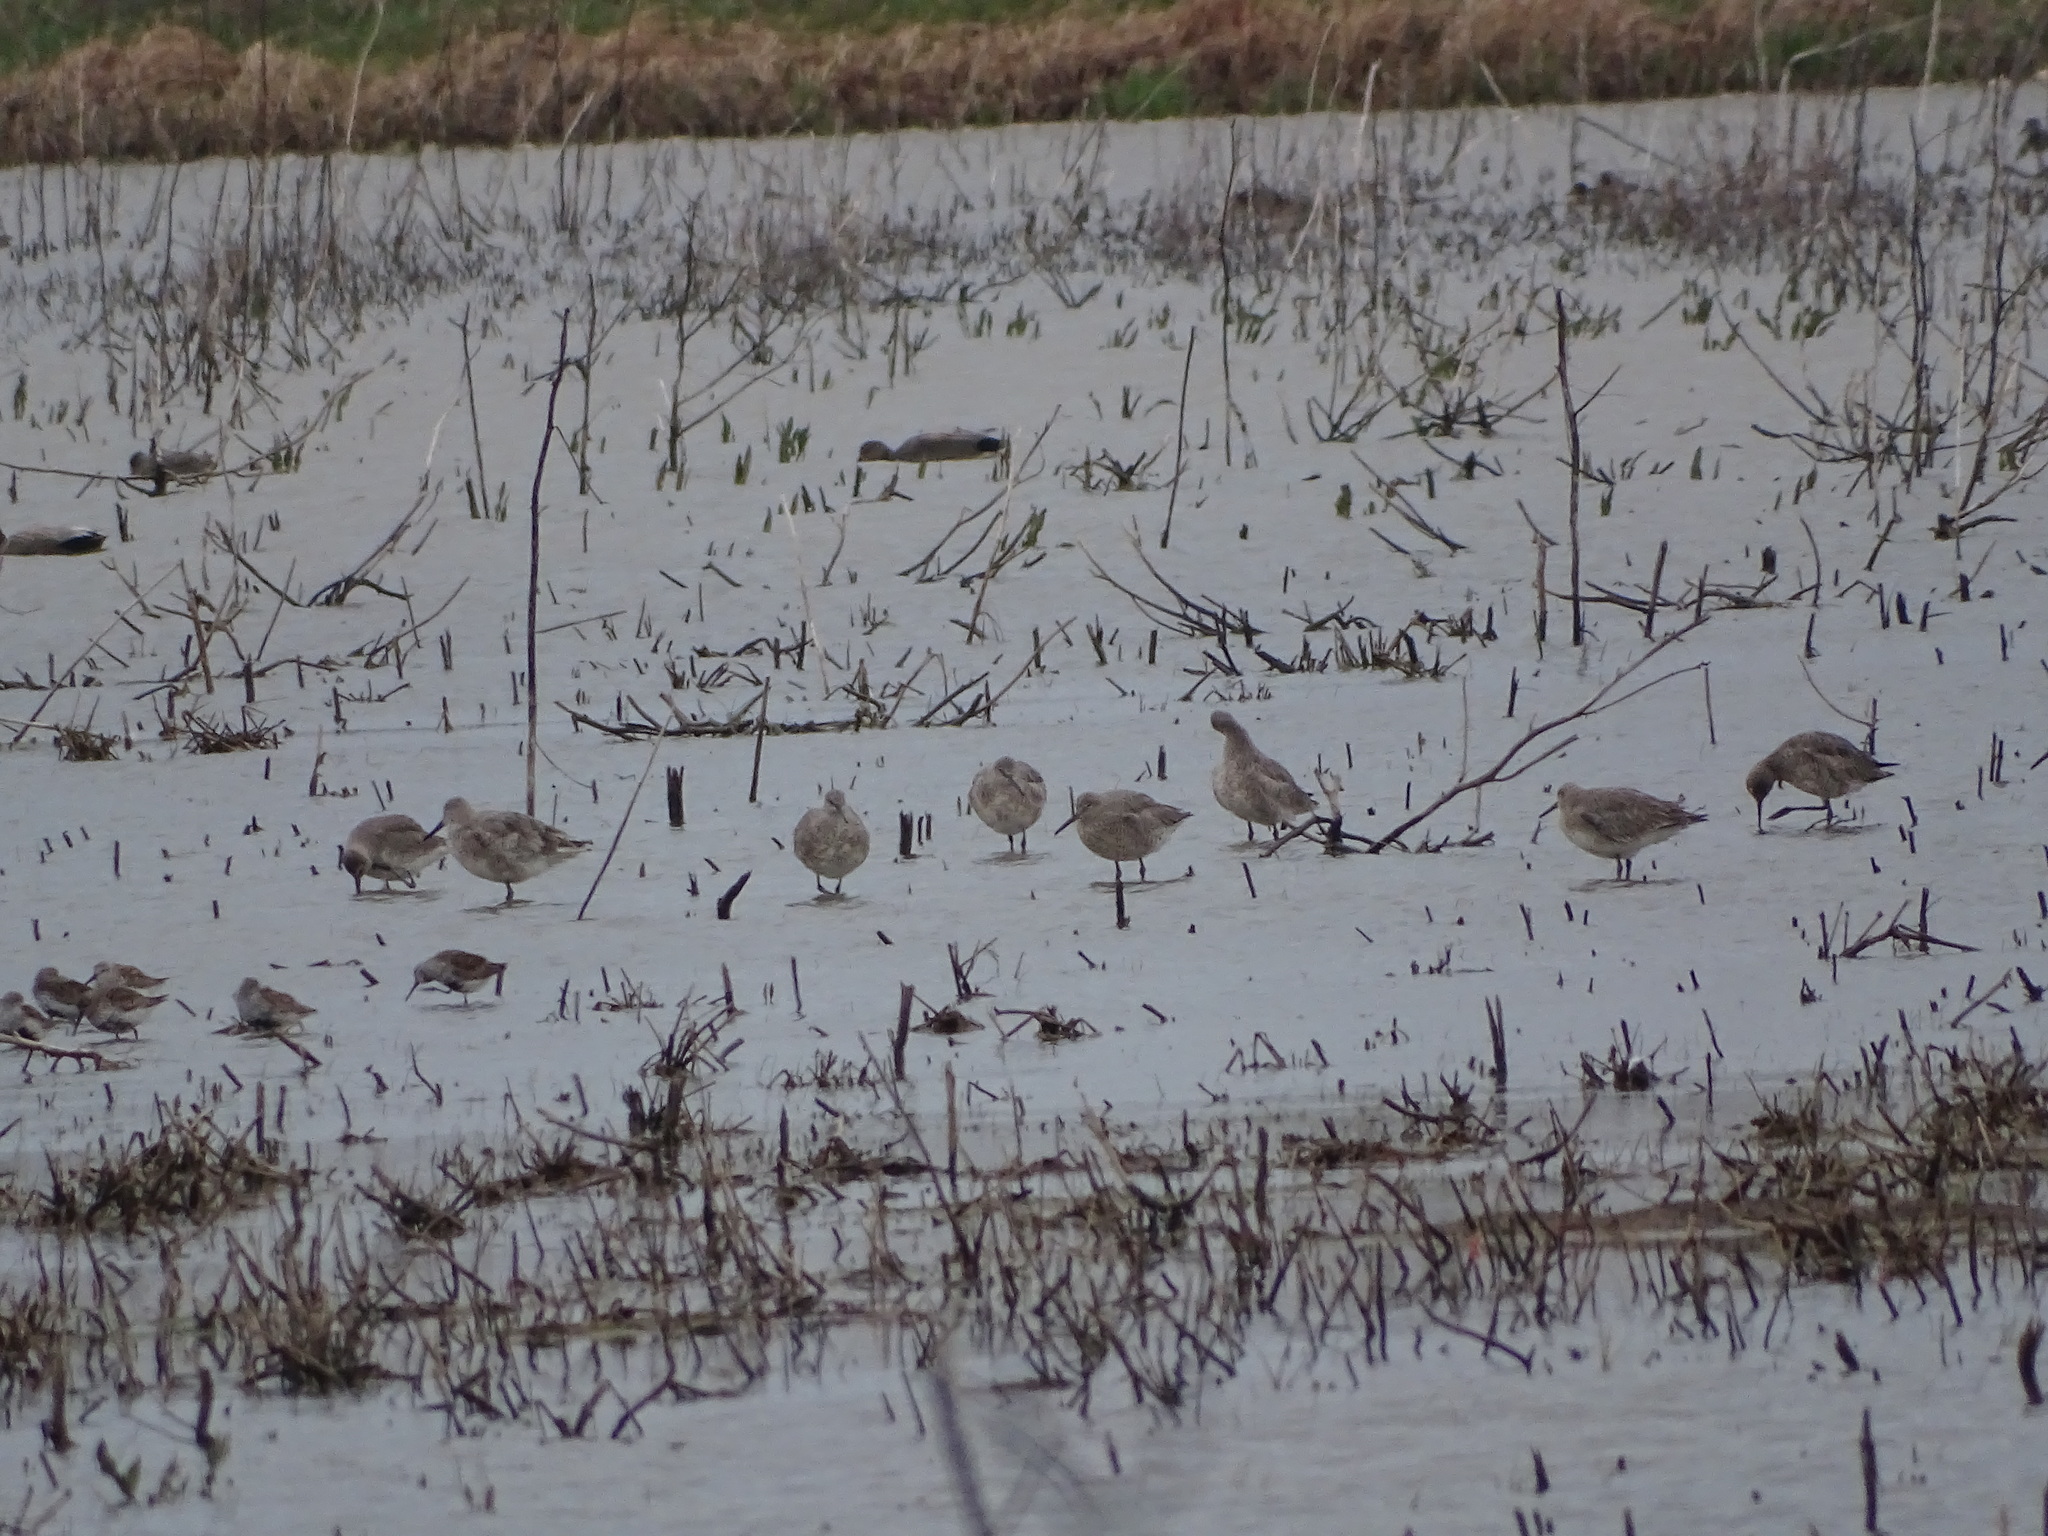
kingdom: Animalia
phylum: Chordata
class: Aves
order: Charadriiformes
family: Scolopacidae
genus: Tringa
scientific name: Tringa semipalmata
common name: Willet
